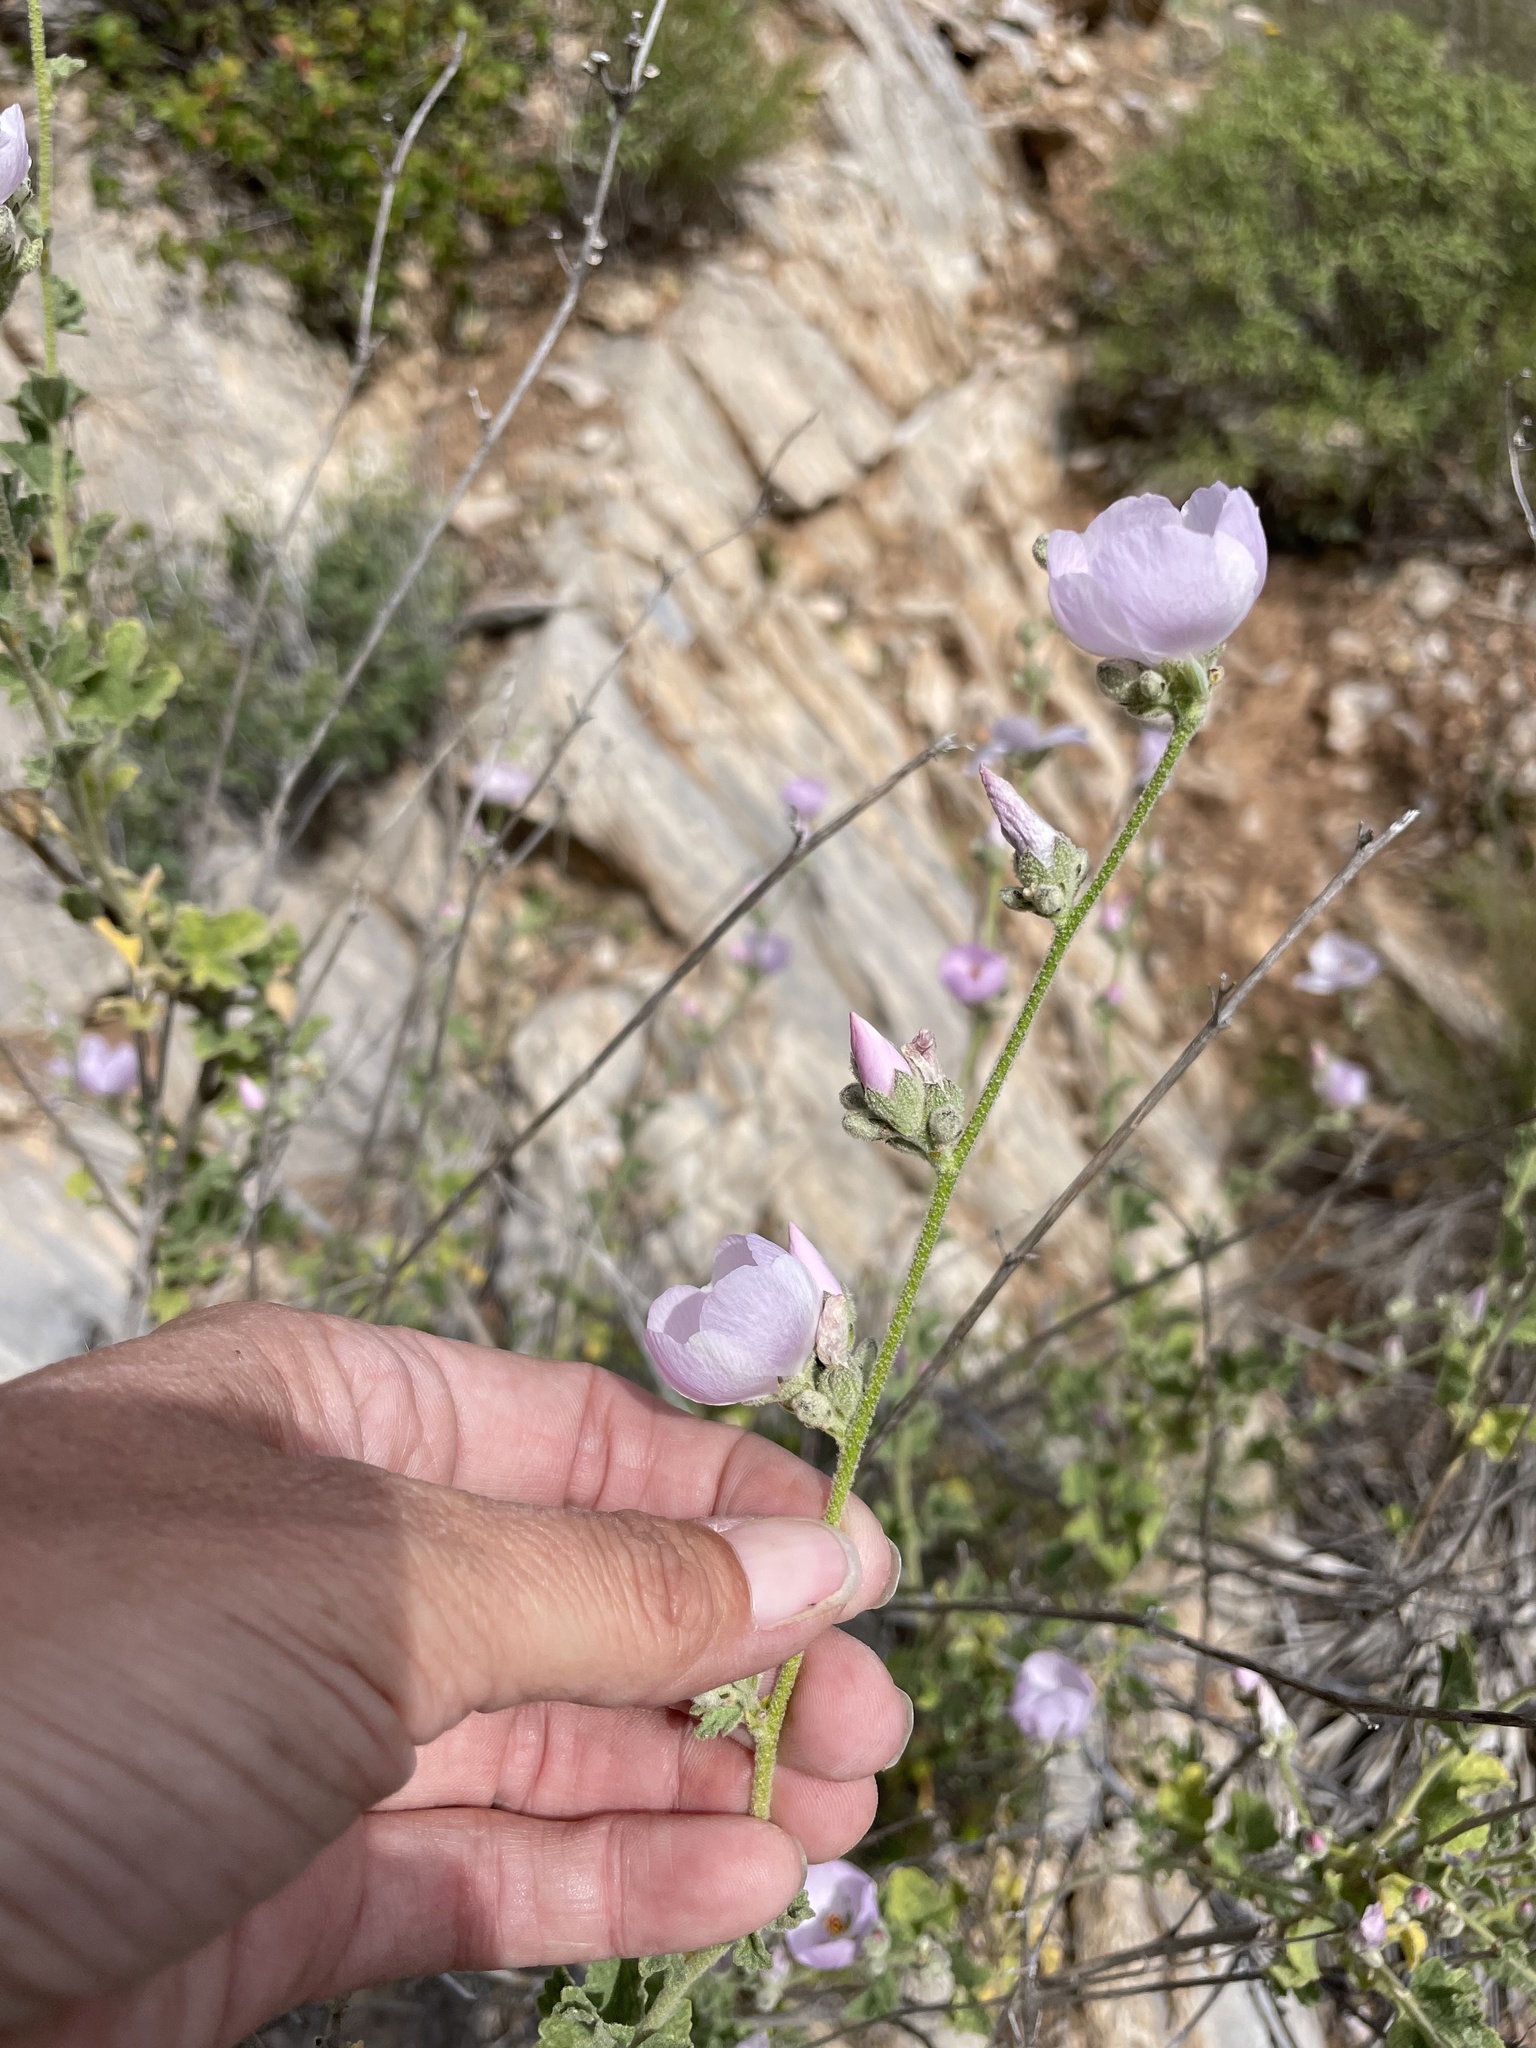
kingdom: Plantae
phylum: Tracheophyta
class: Magnoliopsida
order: Malvales
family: Malvaceae
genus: Malacothamnus
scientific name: Malacothamnus fasciculatus
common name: Sant cruz island bush-mallow
